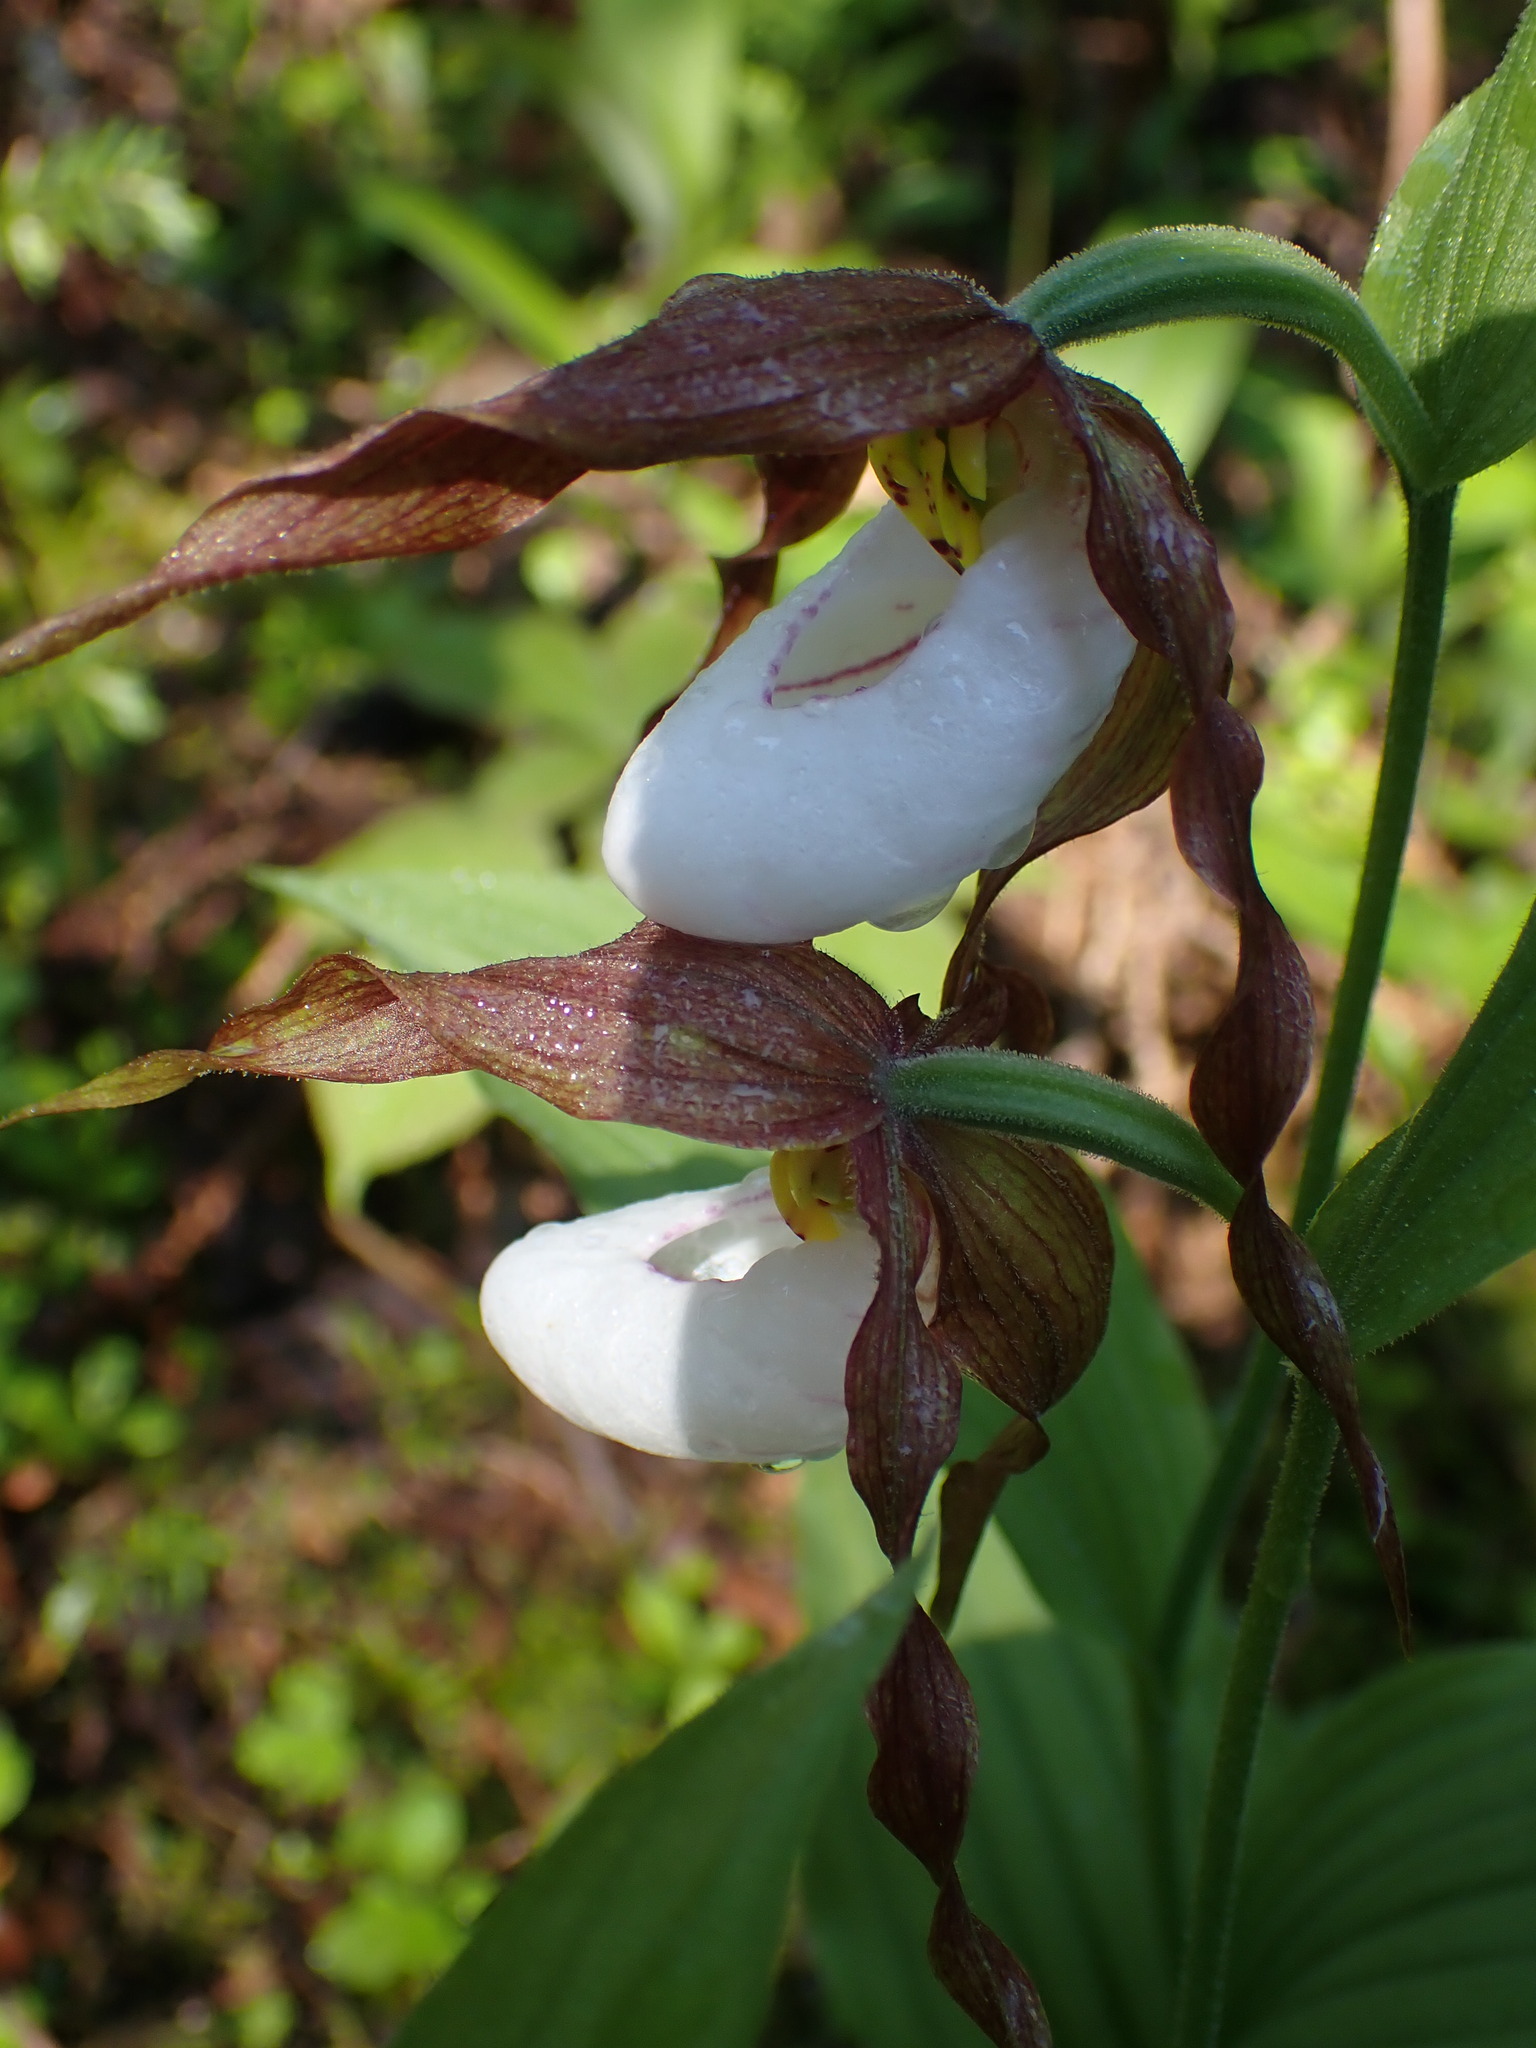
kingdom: Plantae
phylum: Tracheophyta
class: Liliopsida
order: Asparagales
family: Orchidaceae
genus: Cypripedium
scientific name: Cypripedium montanum
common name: Mountain lady's-slipper
